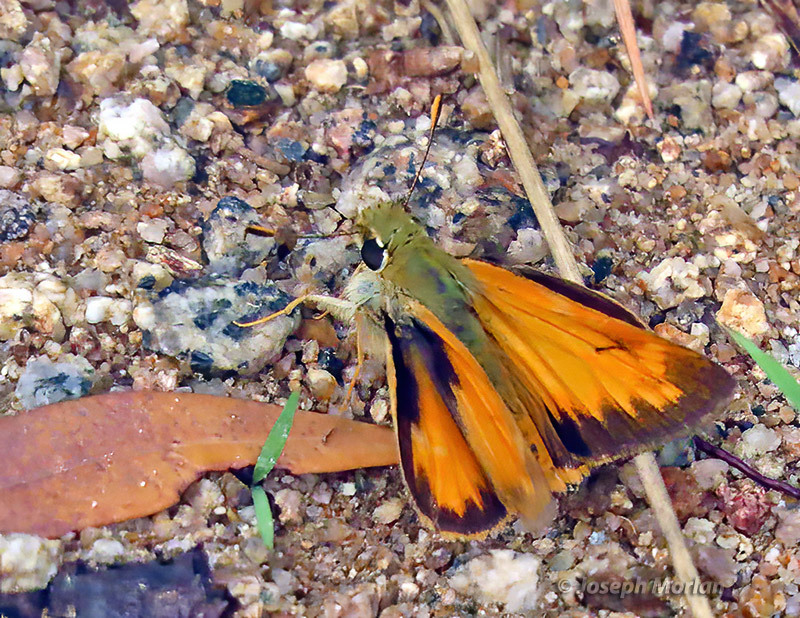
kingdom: Animalia
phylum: Arthropoda
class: Insecta
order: Lepidoptera
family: Hesperiidae
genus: Lon
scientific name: Lon taxiles
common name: Taxiles skipper
